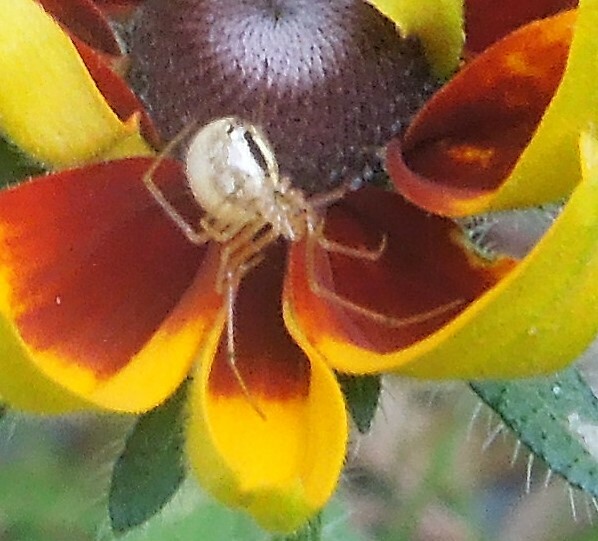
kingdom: Animalia
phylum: Arthropoda
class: Arachnida
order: Araneae
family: Theridiidae
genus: Enoplognatha
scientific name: Enoplognatha ovata
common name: Common candy-striped spider
